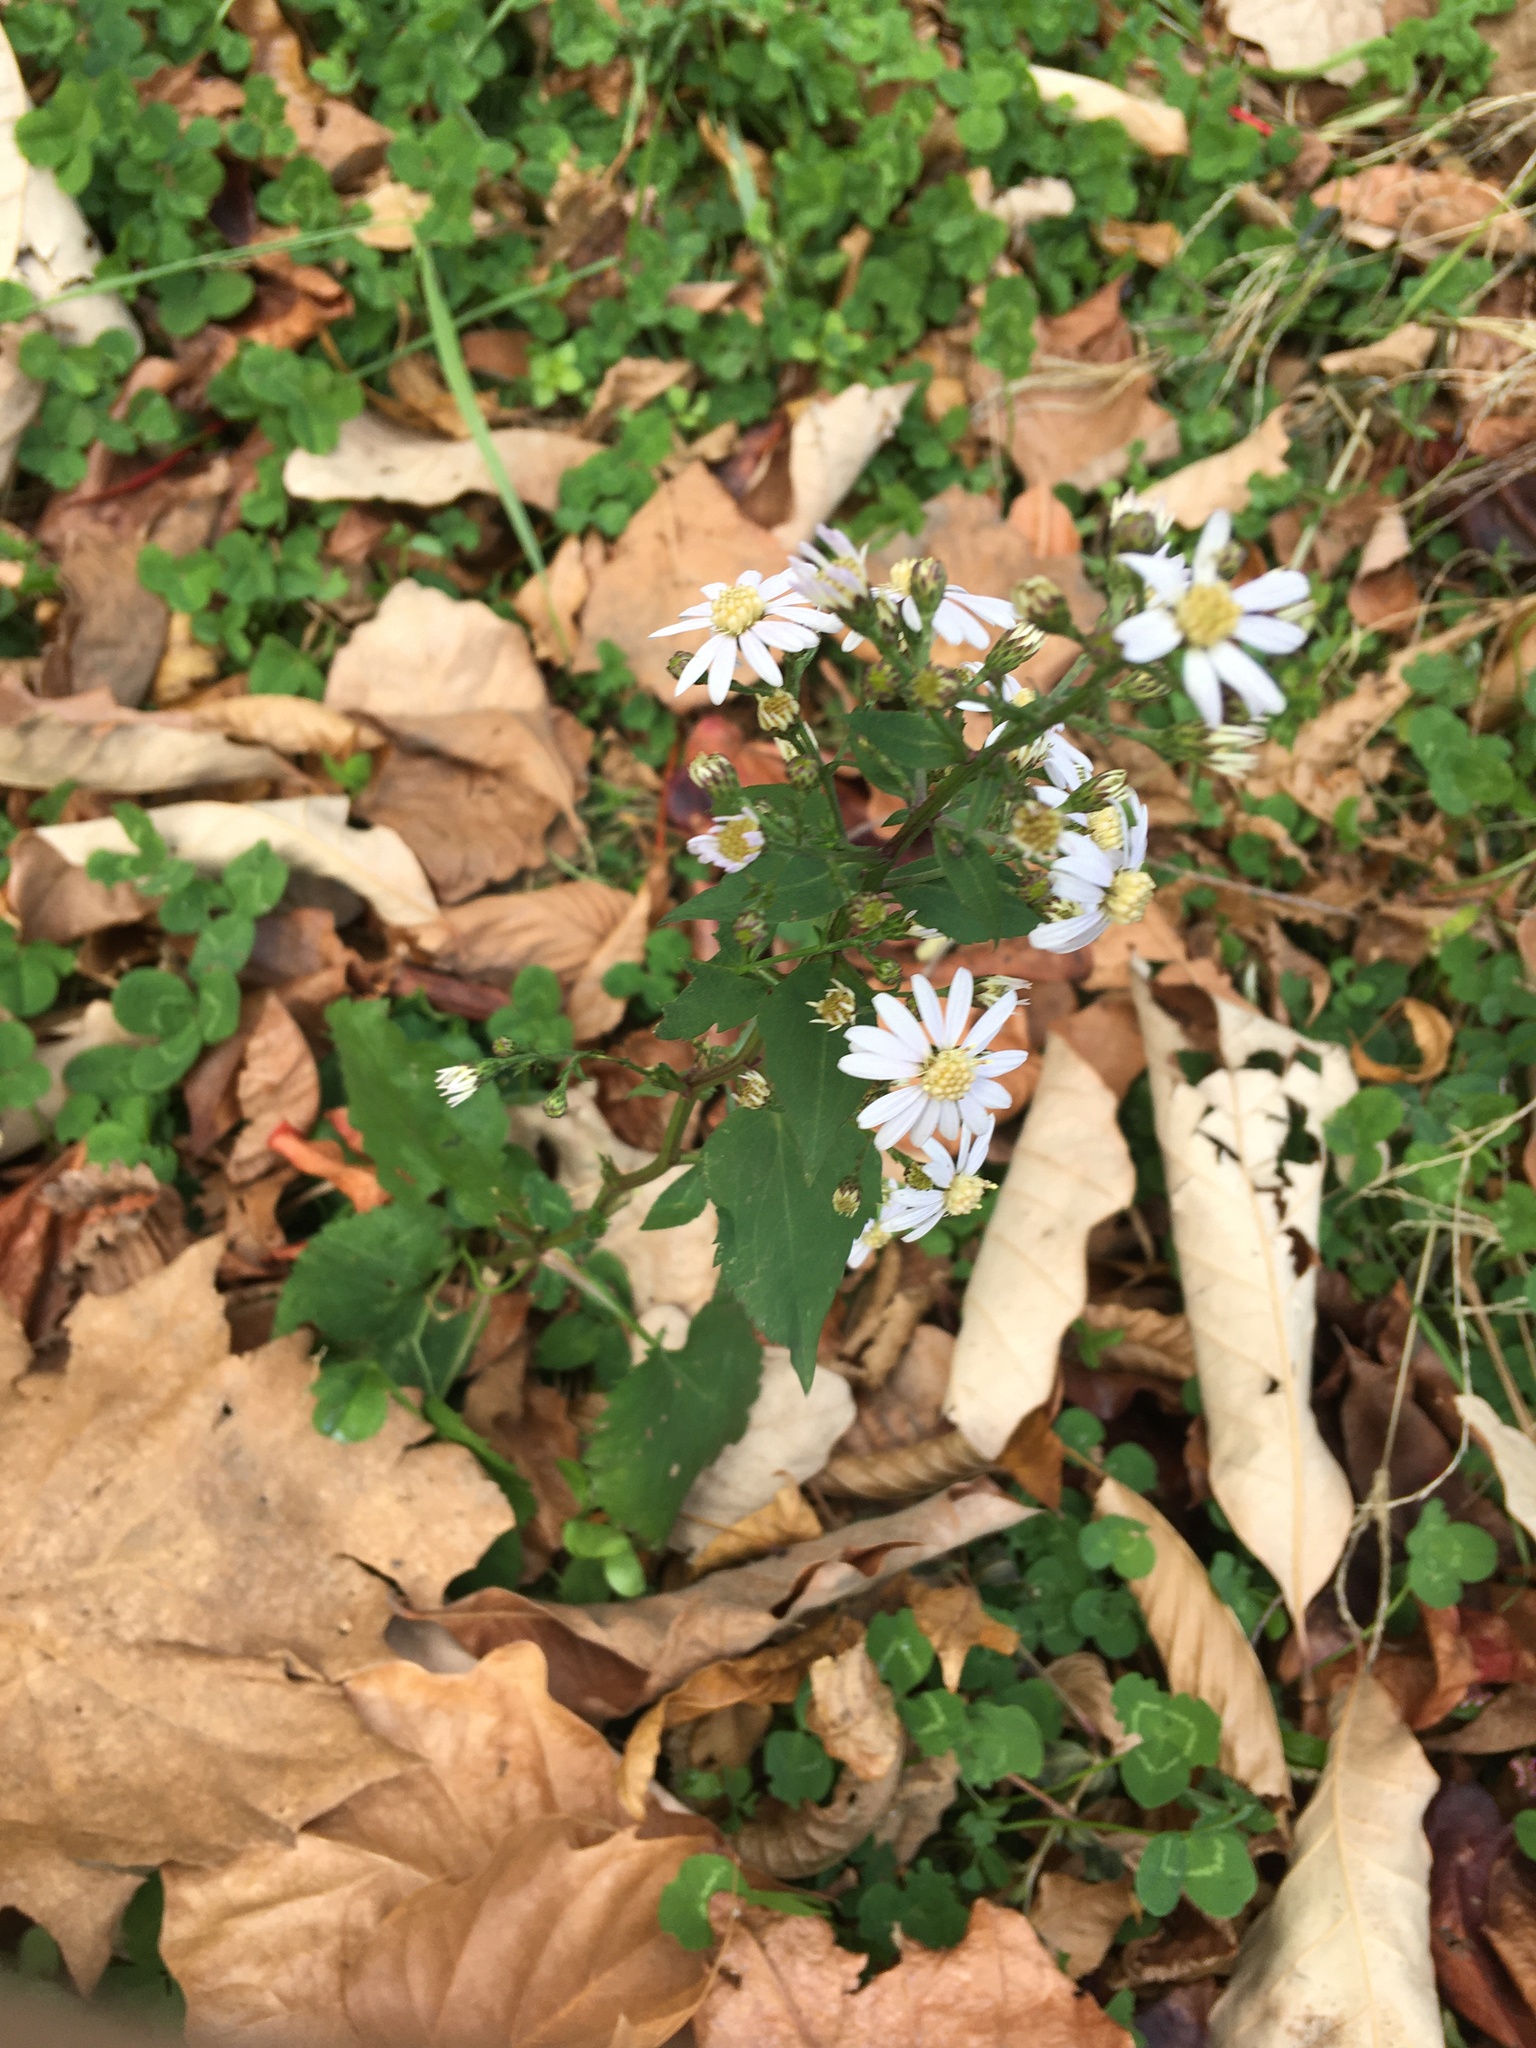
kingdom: Plantae
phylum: Tracheophyta
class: Magnoliopsida
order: Asterales
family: Asteraceae
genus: Symphyotrichum
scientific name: Symphyotrichum cordifolium
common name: Beeweed
